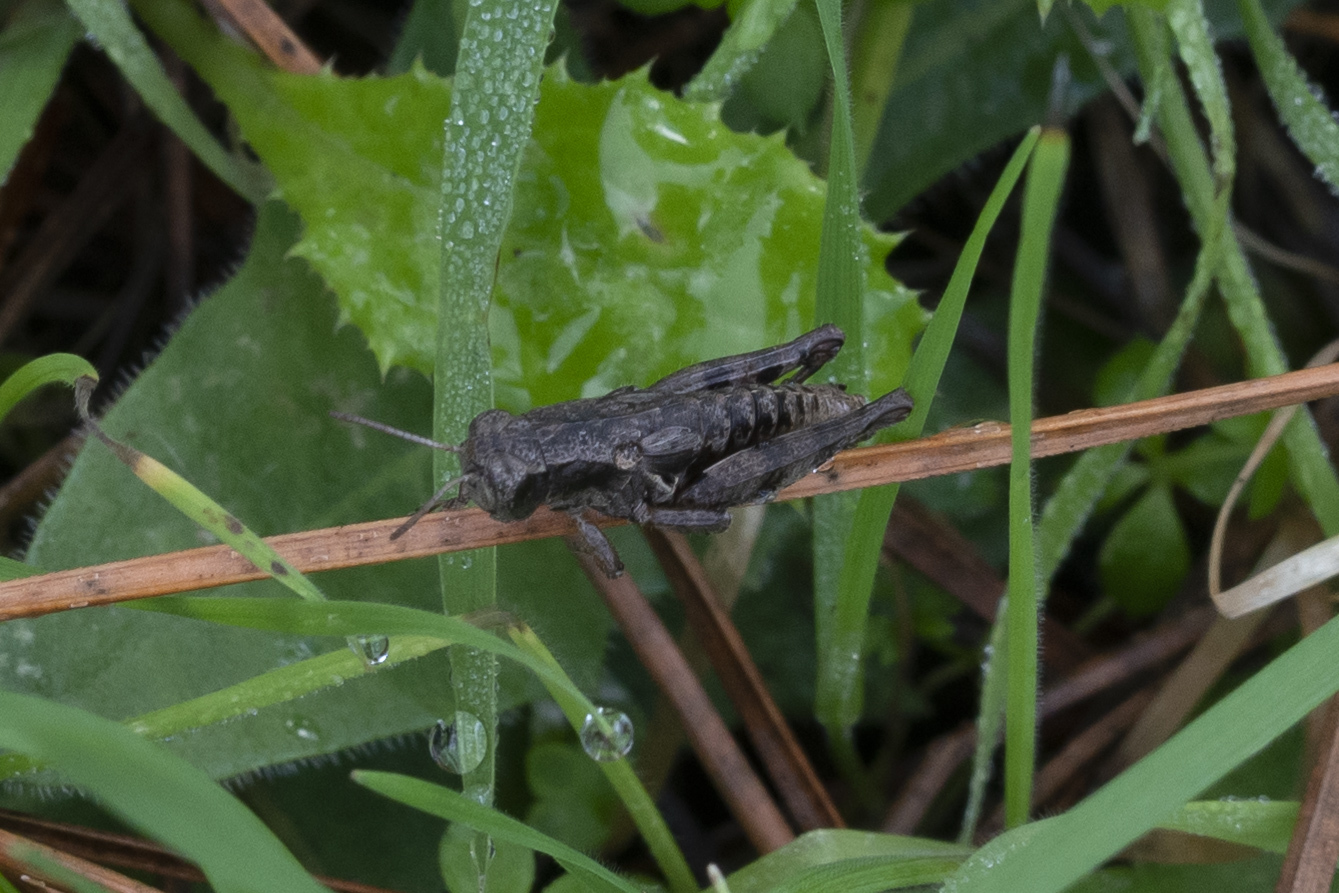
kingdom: Animalia
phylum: Arthropoda
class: Insecta
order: Orthoptera
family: Acrididae
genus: Pezotettix
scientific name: Pezotettix lagoi
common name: Rhodes maquis grasshopper
